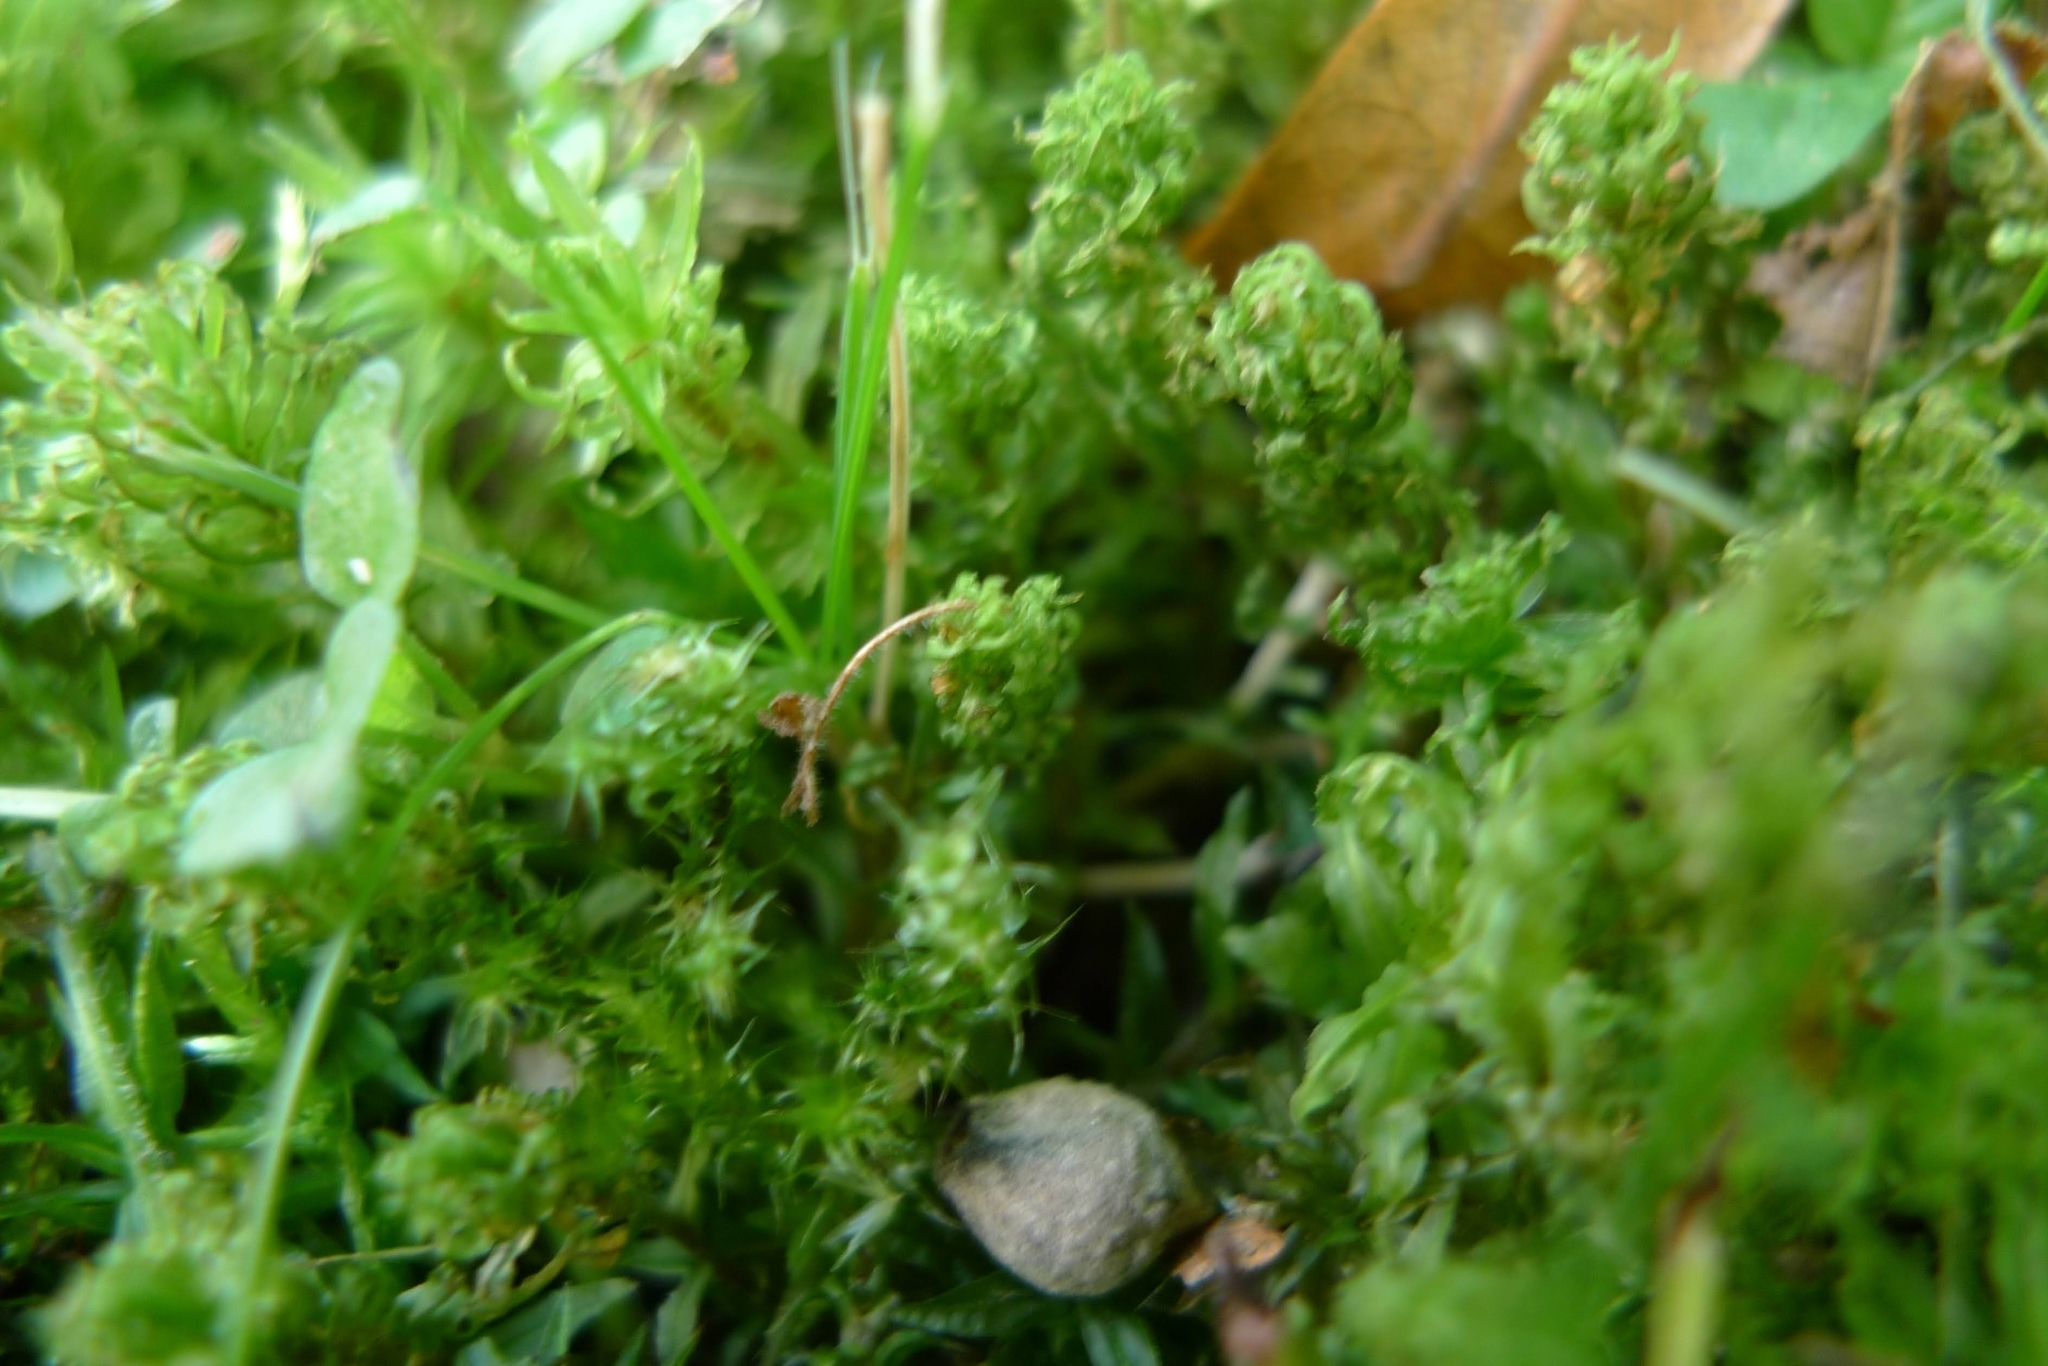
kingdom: Plantae
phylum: Bryophyta
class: Bryopsida
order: Hypnales
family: Hylocomiaceae
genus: Rhytidiadelphus
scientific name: Rhytidiadelphus squarrosus
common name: Springy turf-moss
